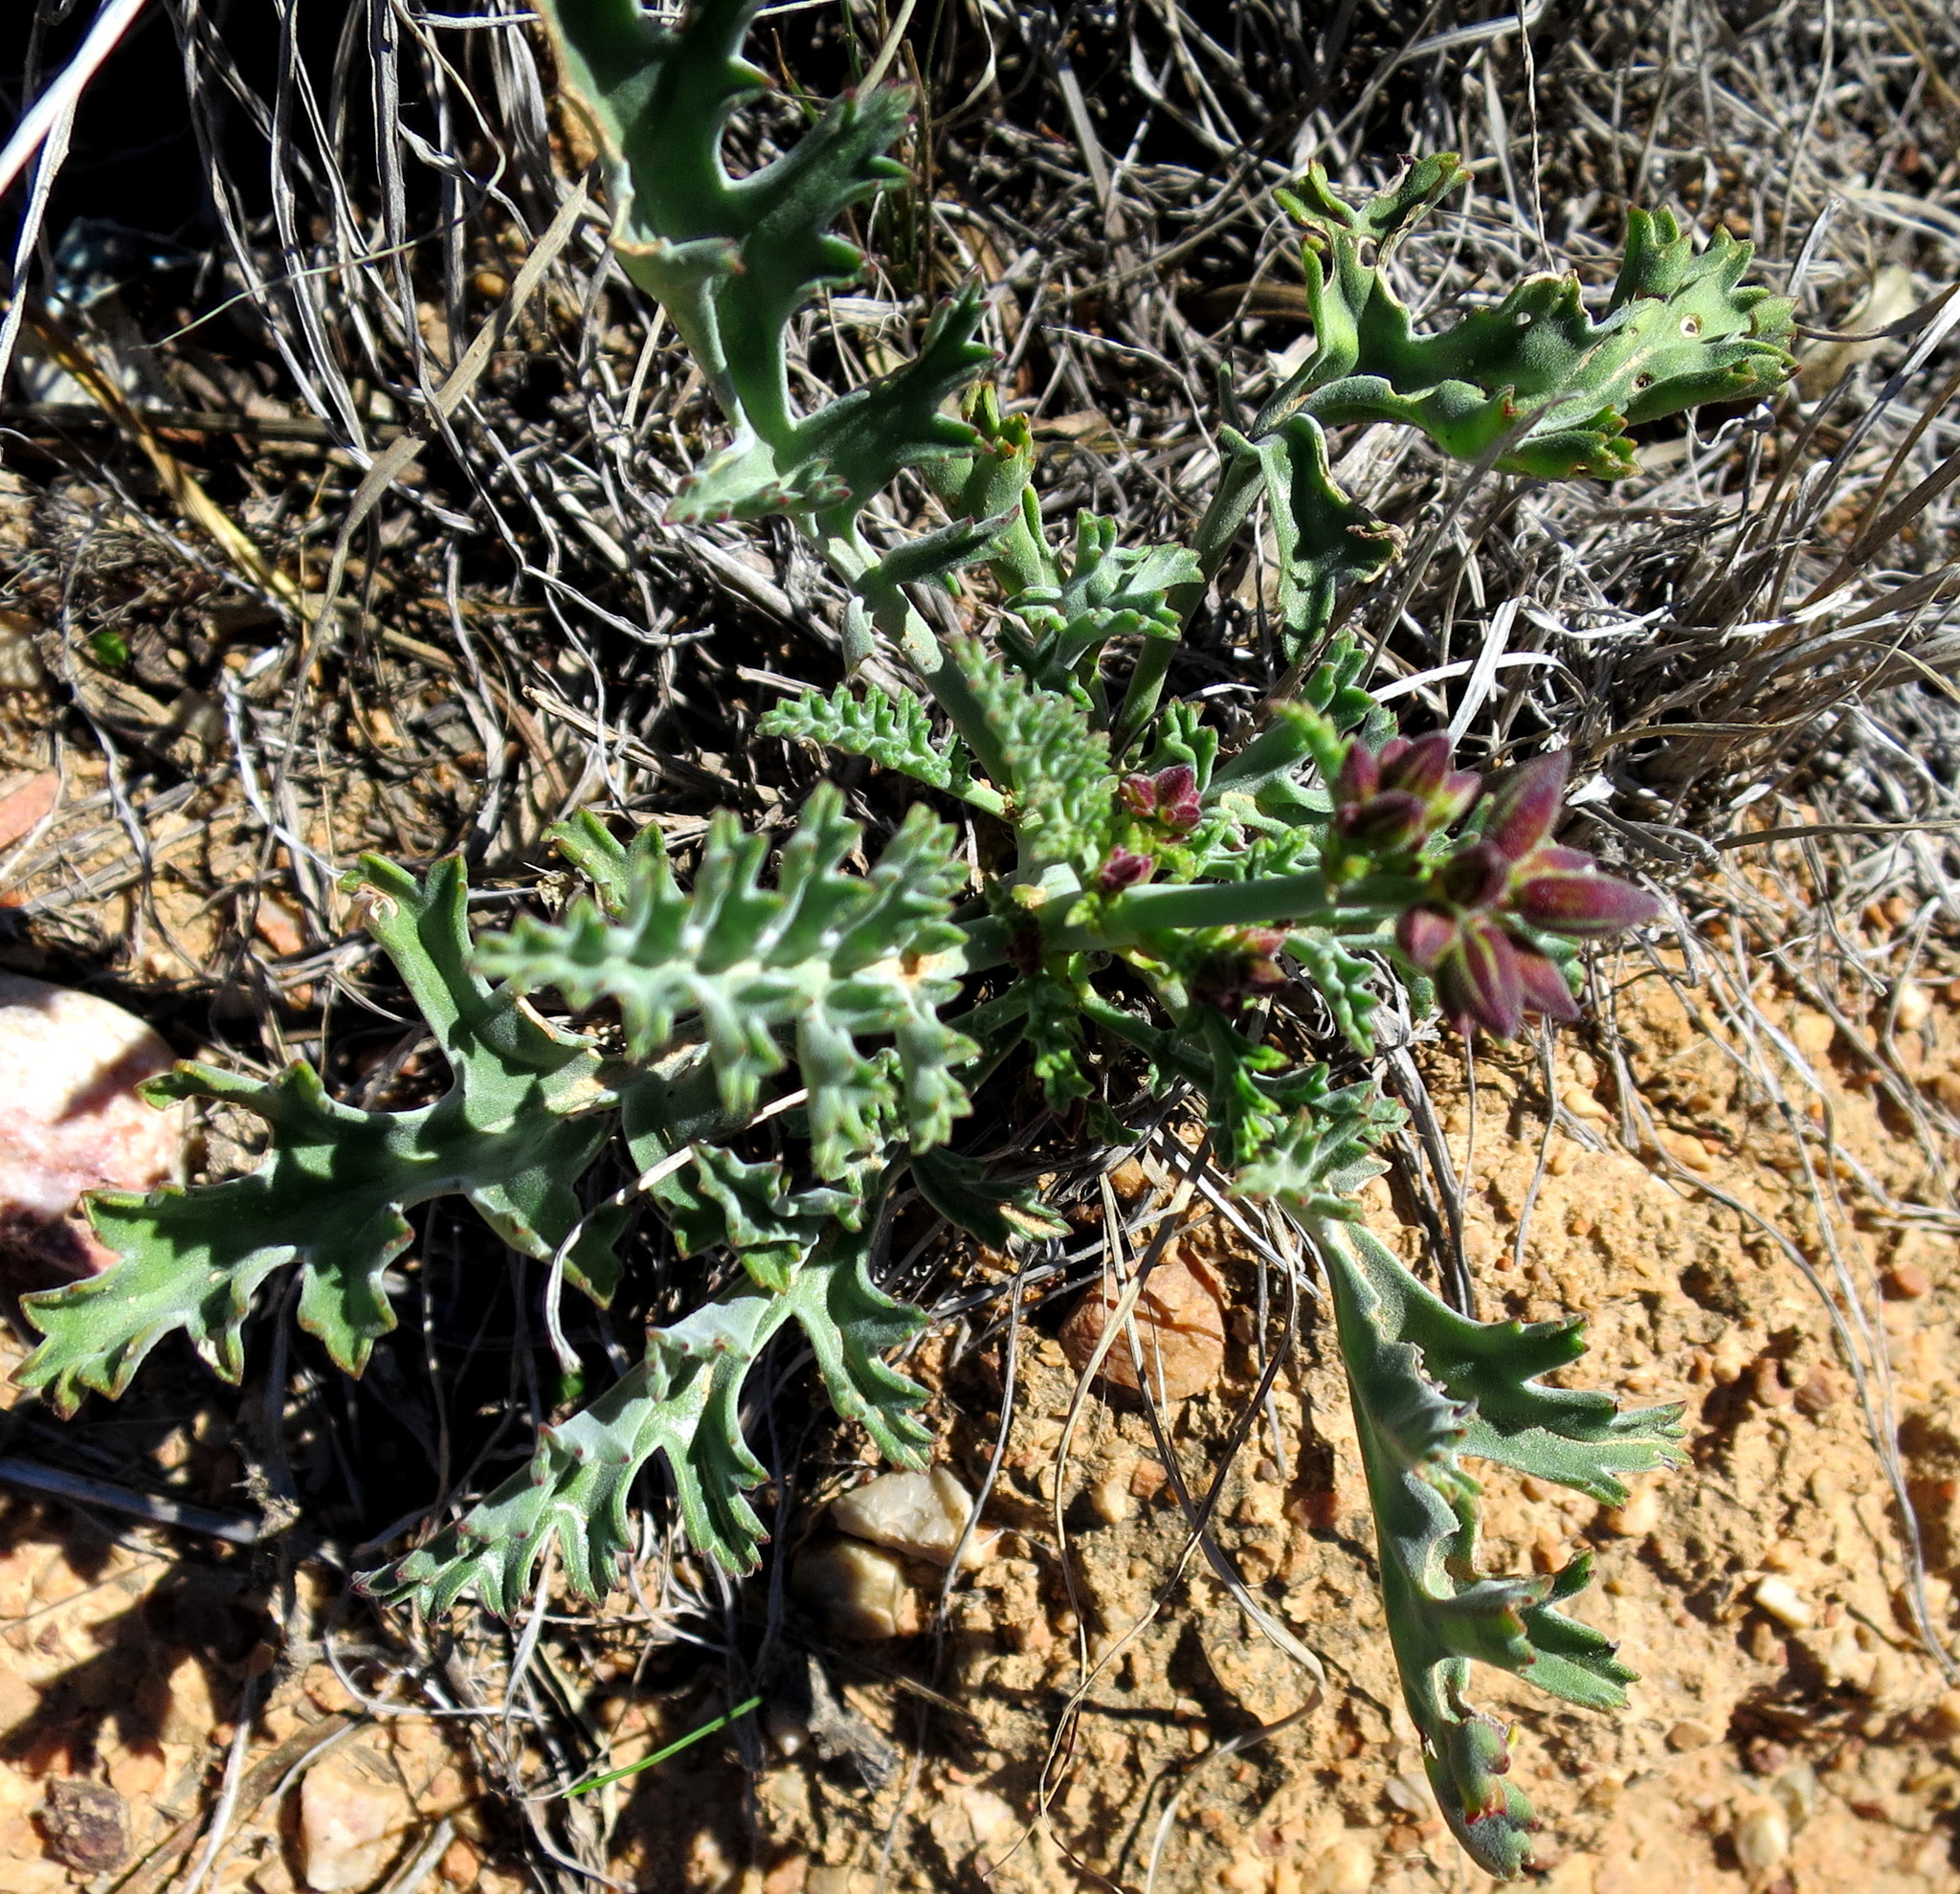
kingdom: Plantae
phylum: Tracheophyta
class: Magnoliopsida
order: Geraniales
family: Geraniaceae
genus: Pelargonium
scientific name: Pelargonium karooescens
